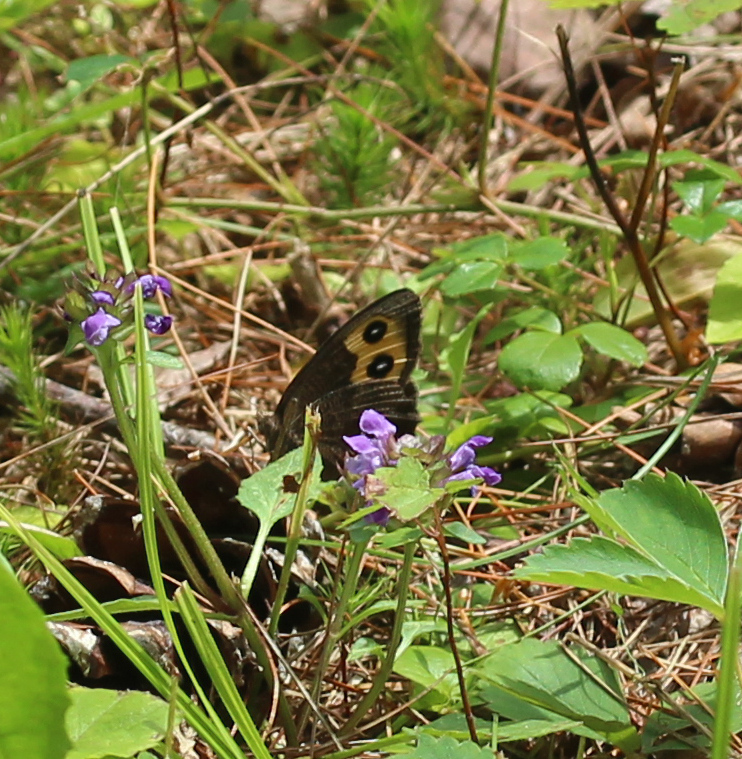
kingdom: Animalia
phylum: Arthropoda
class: Insecta
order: Lepidoptera
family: Nymphalidae
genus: Cercyonis
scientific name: Cercyonis pegala
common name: Common wood-nymph
